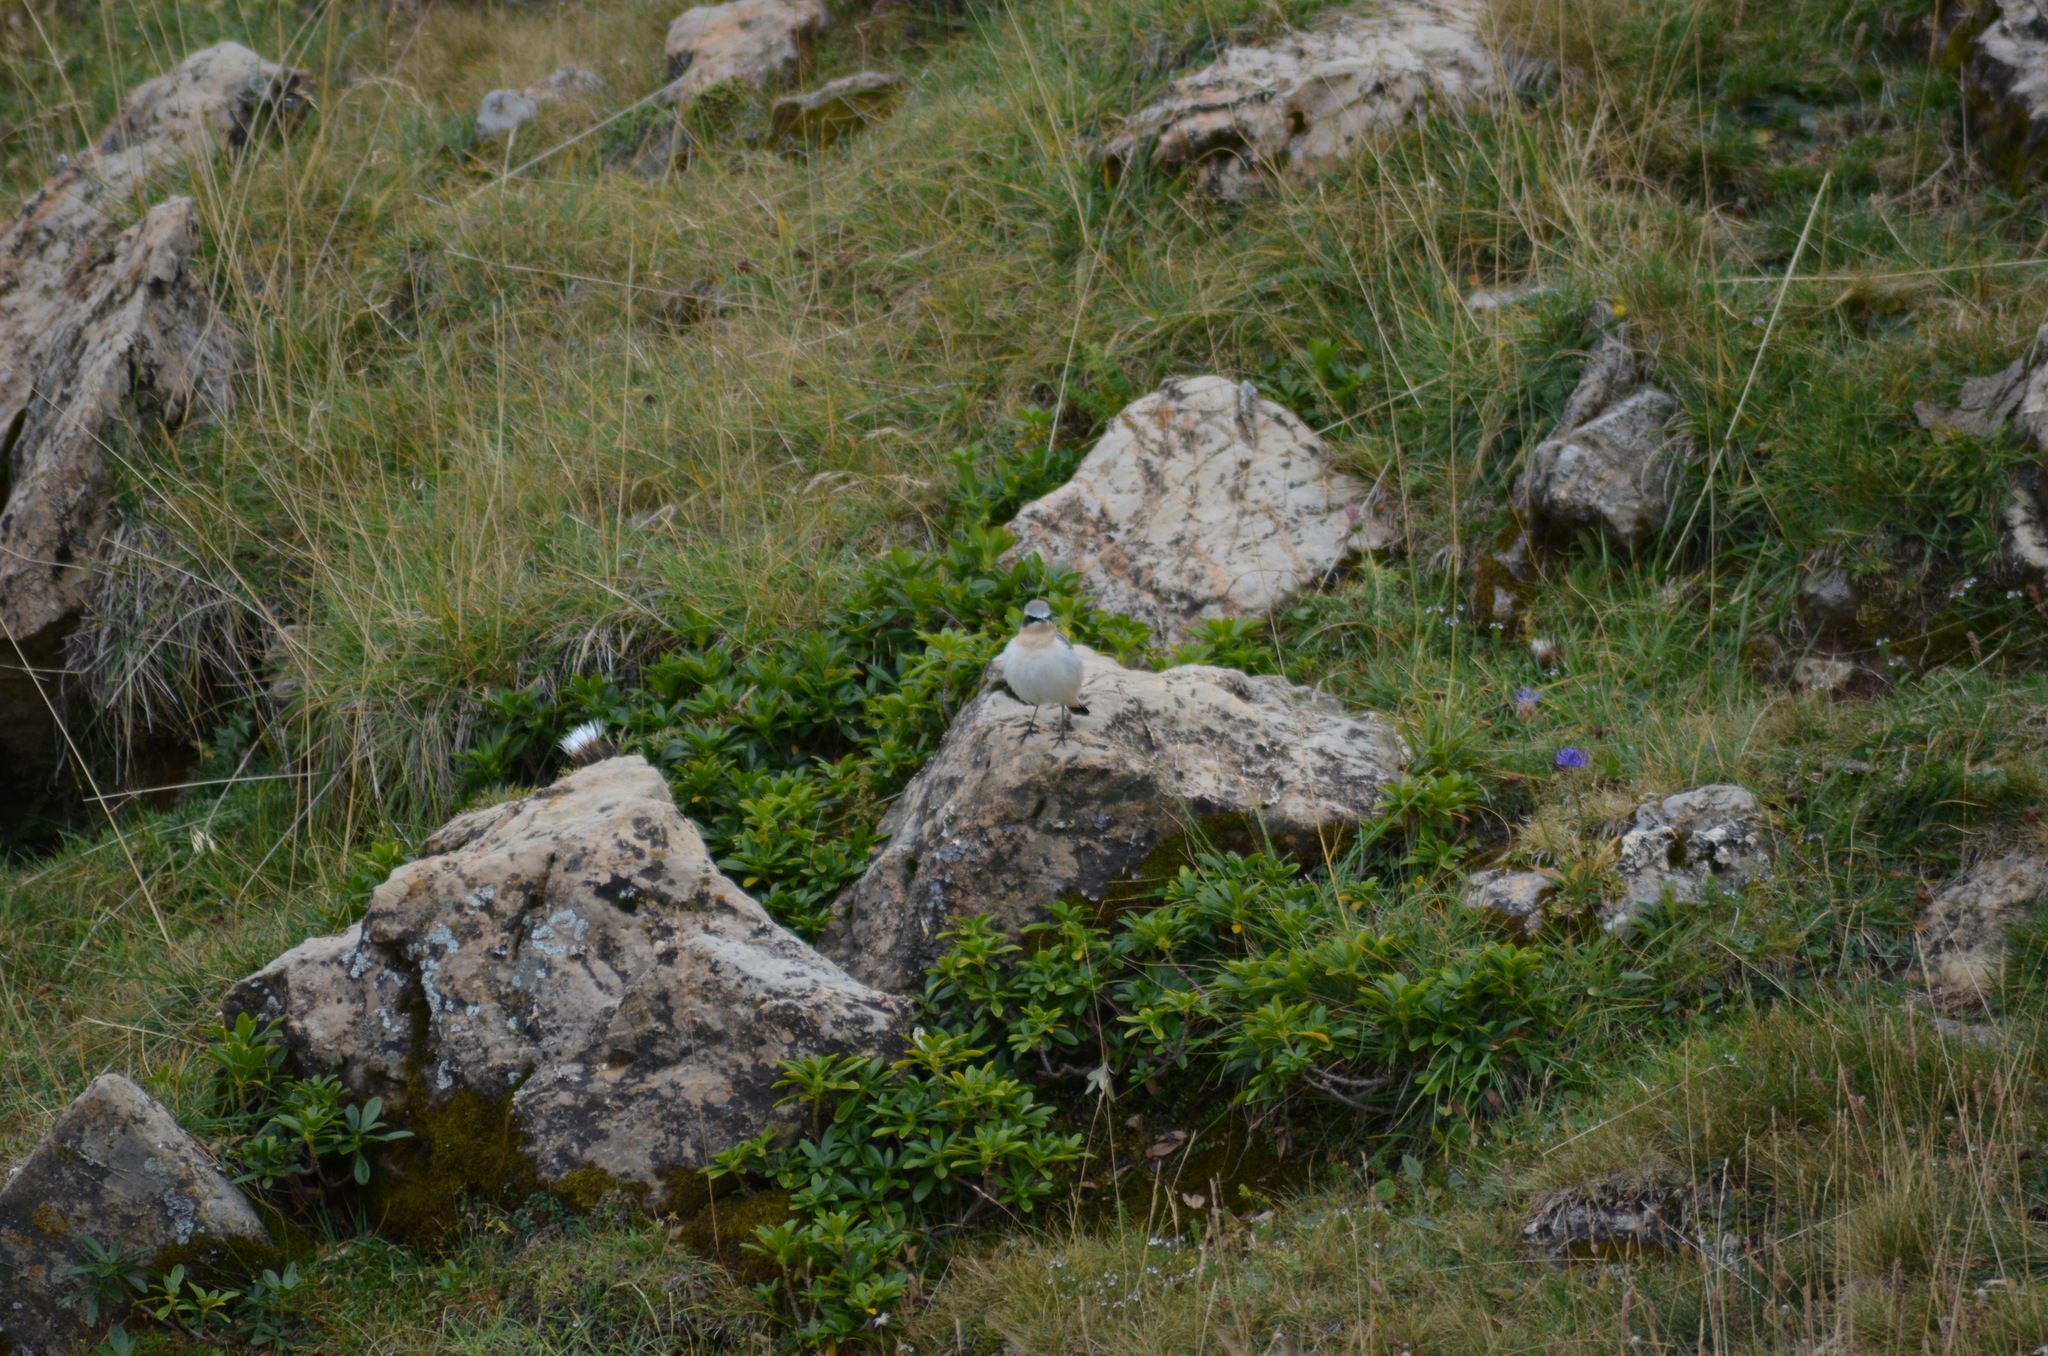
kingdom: Animalia
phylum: Chordata
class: Aves
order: Passeriformes
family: Muscicapidae
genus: Oenanthe
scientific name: Oenanthe oenanthe
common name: Northern wheatear
